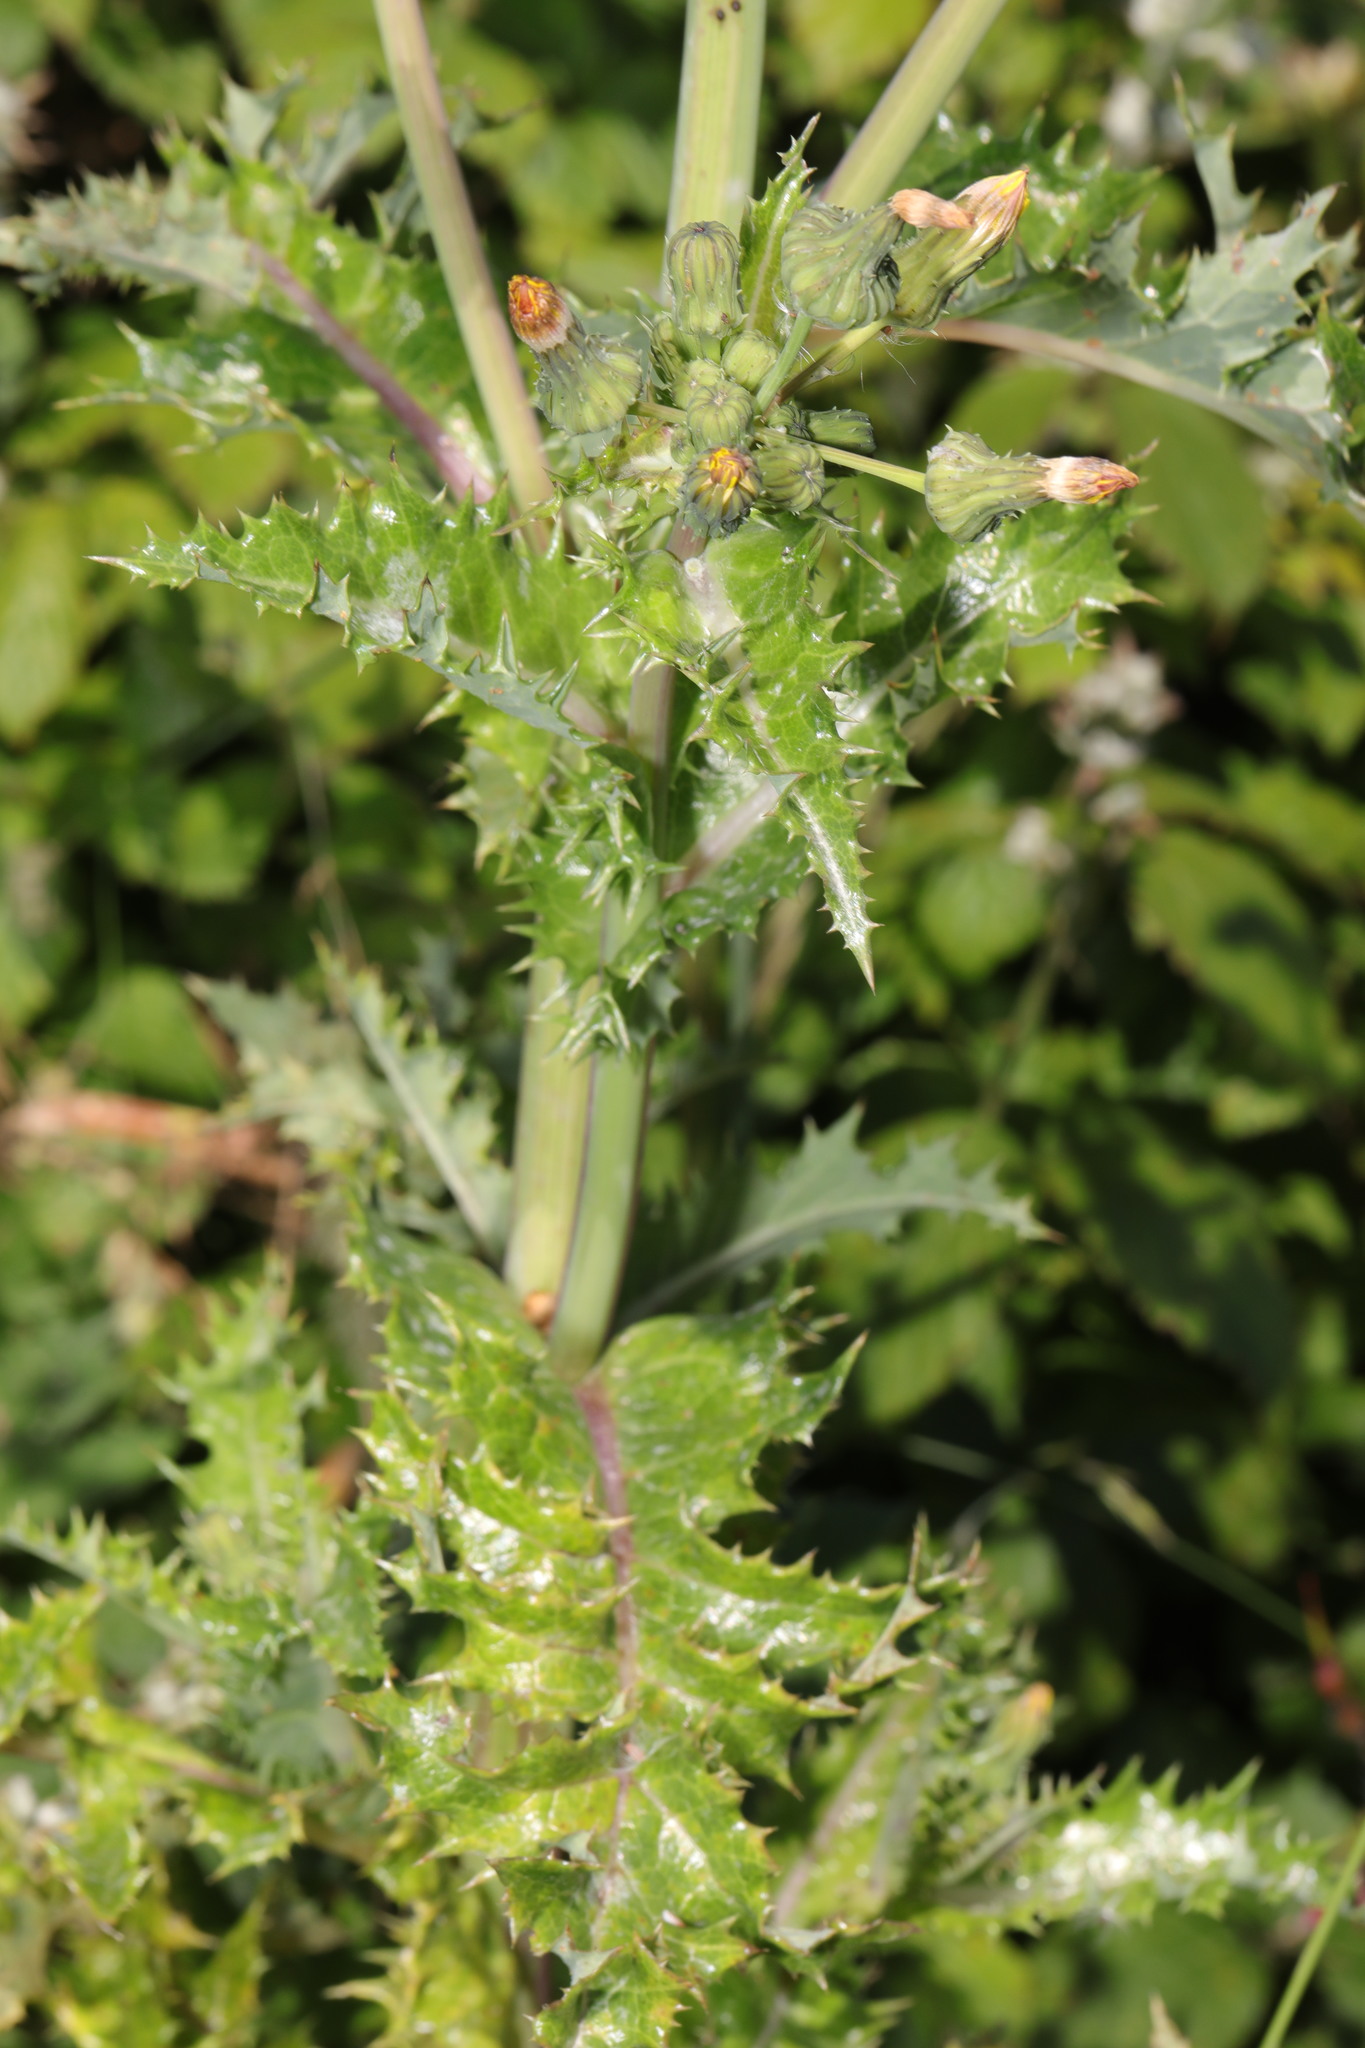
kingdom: Plantae
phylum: Tracheophyta
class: Magnoliopsida
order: Asterales
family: Asteraceae
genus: Sonchus
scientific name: Sonchus asper
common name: Prickly sow-thistle
